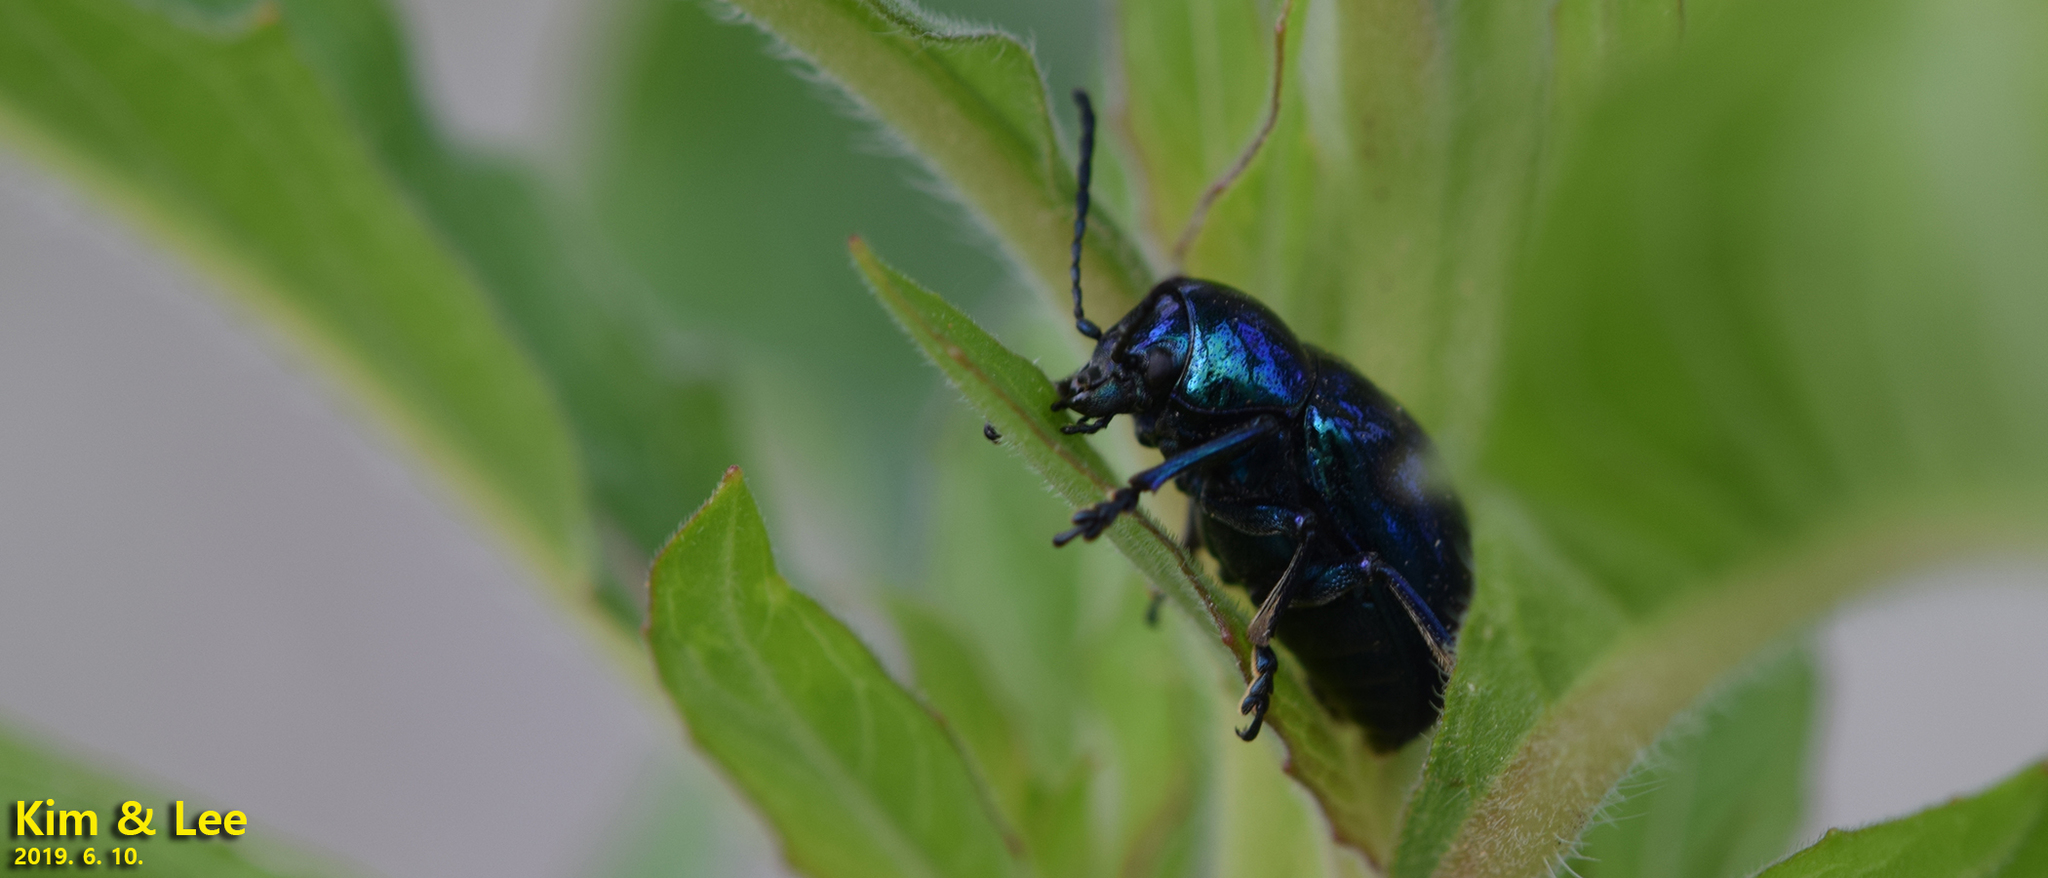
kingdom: Animalia
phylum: Arthropoda
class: Insecta
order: Coleoptera
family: Chrysomelidae
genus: Chrysochus
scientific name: Chrysochus chinensis
